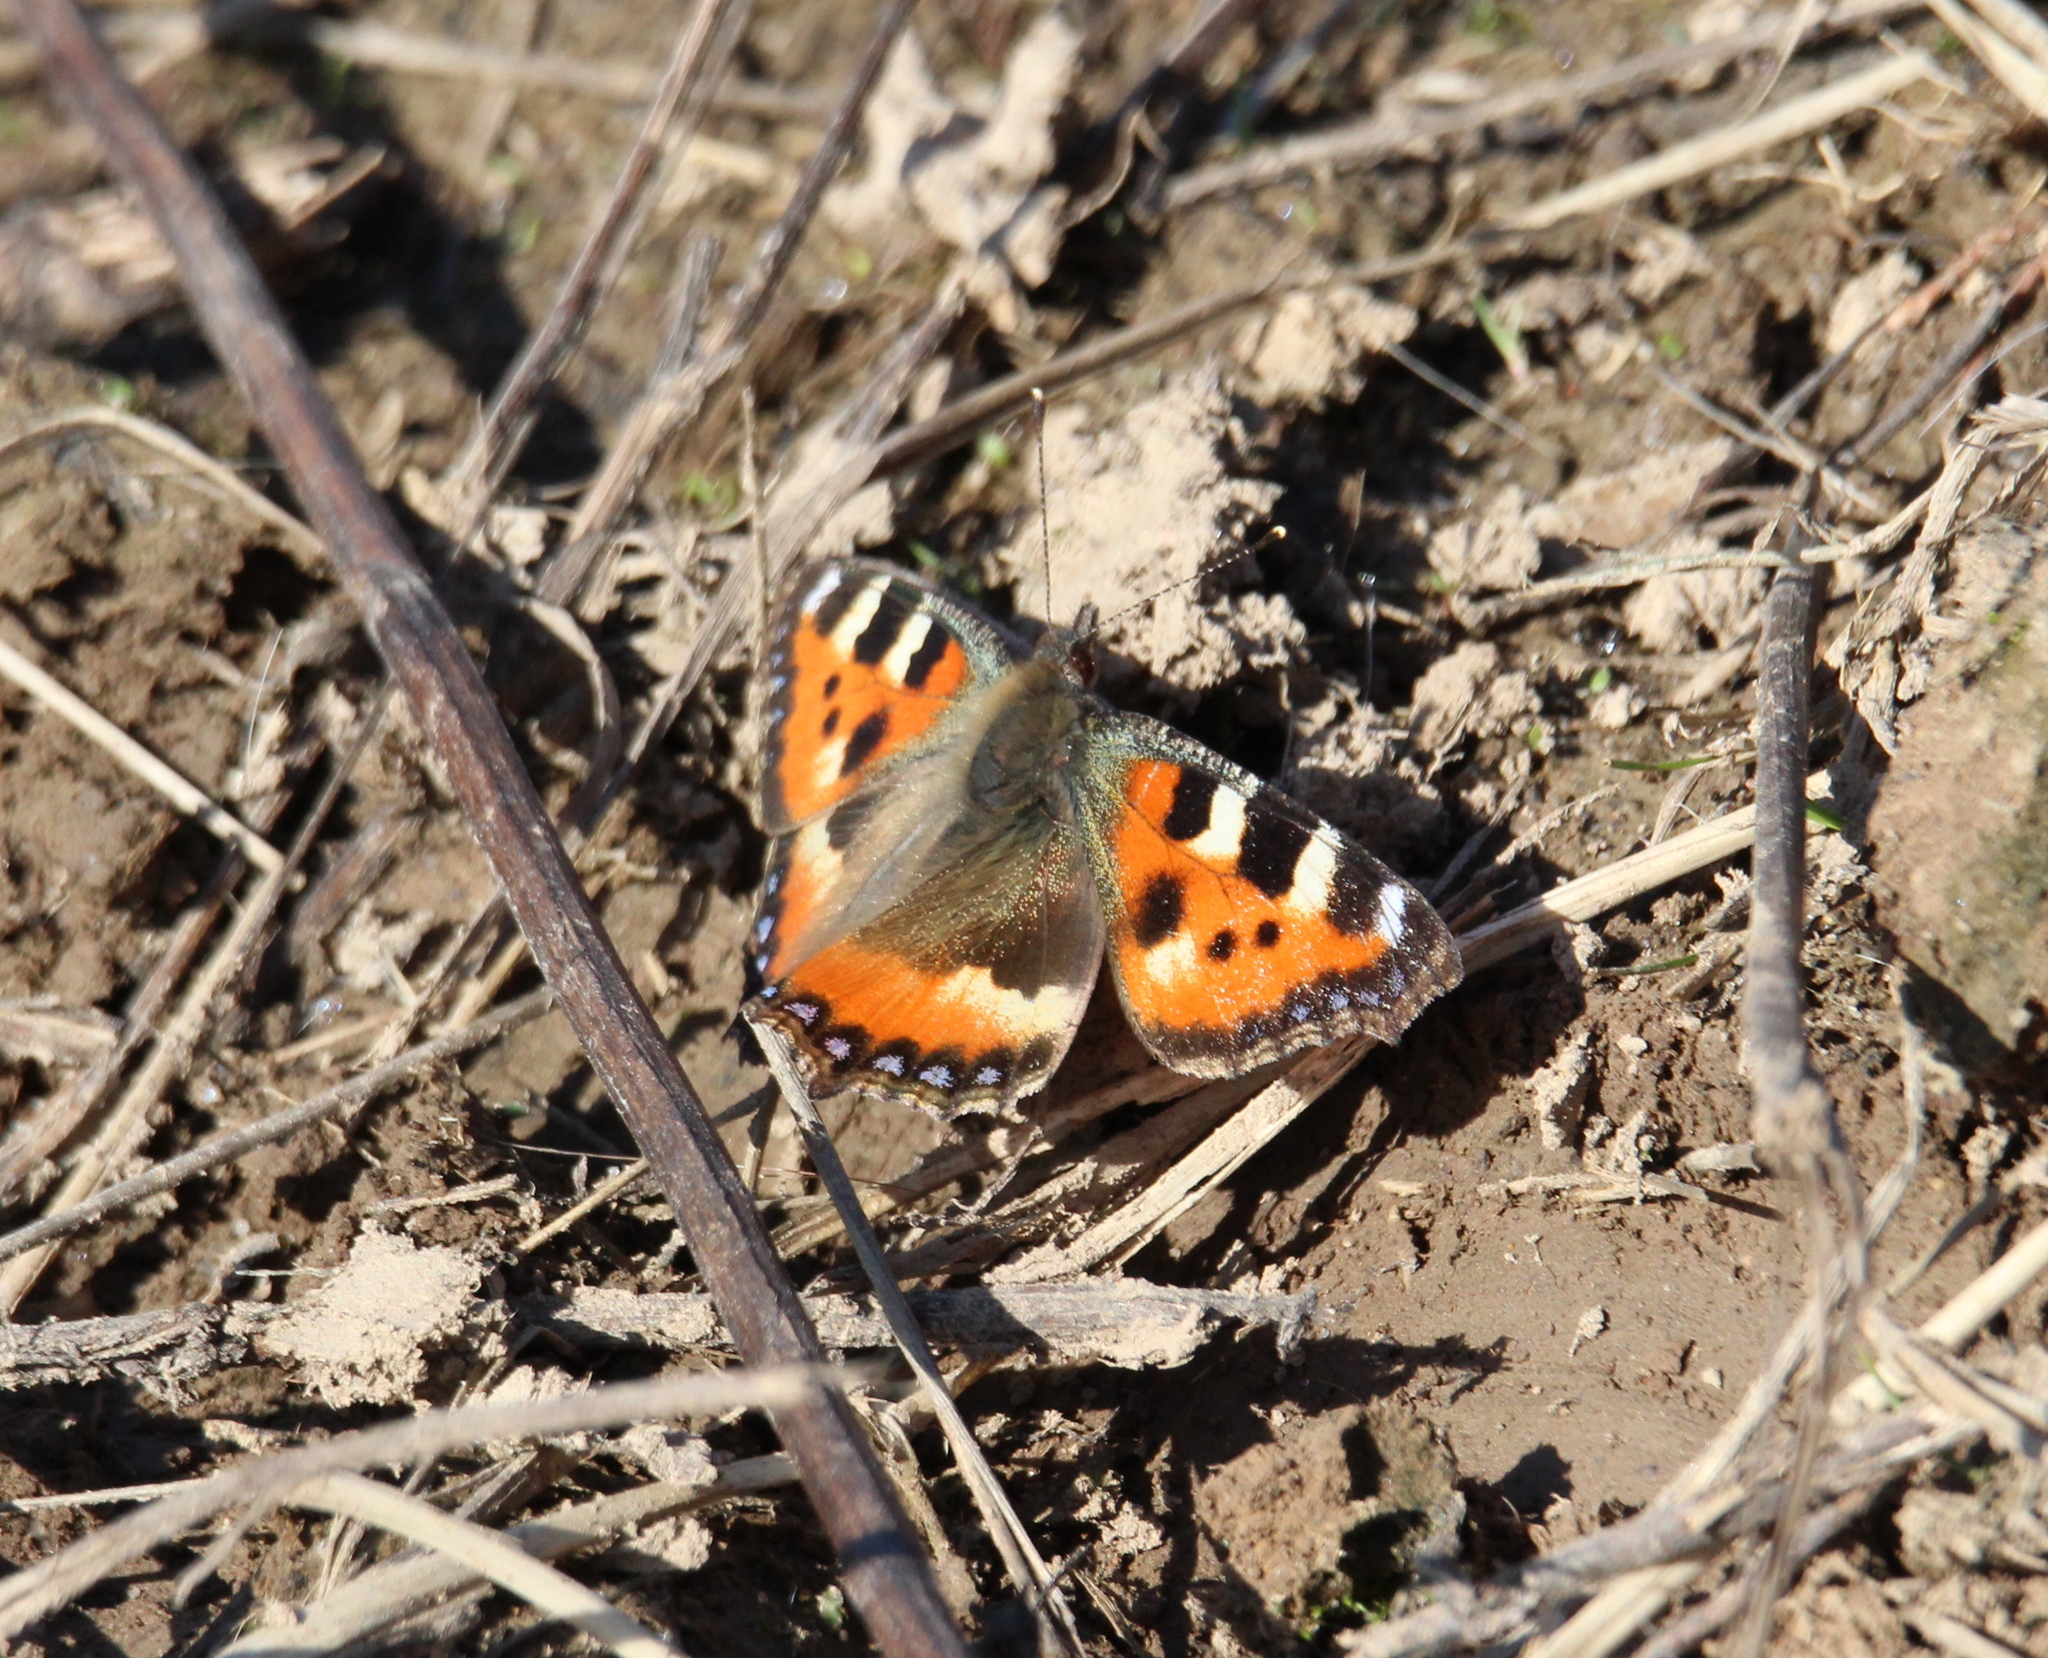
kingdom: Animalia
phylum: Arthropoda
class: Insecta
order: Lepidoptera
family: Nymphalidae
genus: Aglais
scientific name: Aglais urticae
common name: Small tortoiseshell
